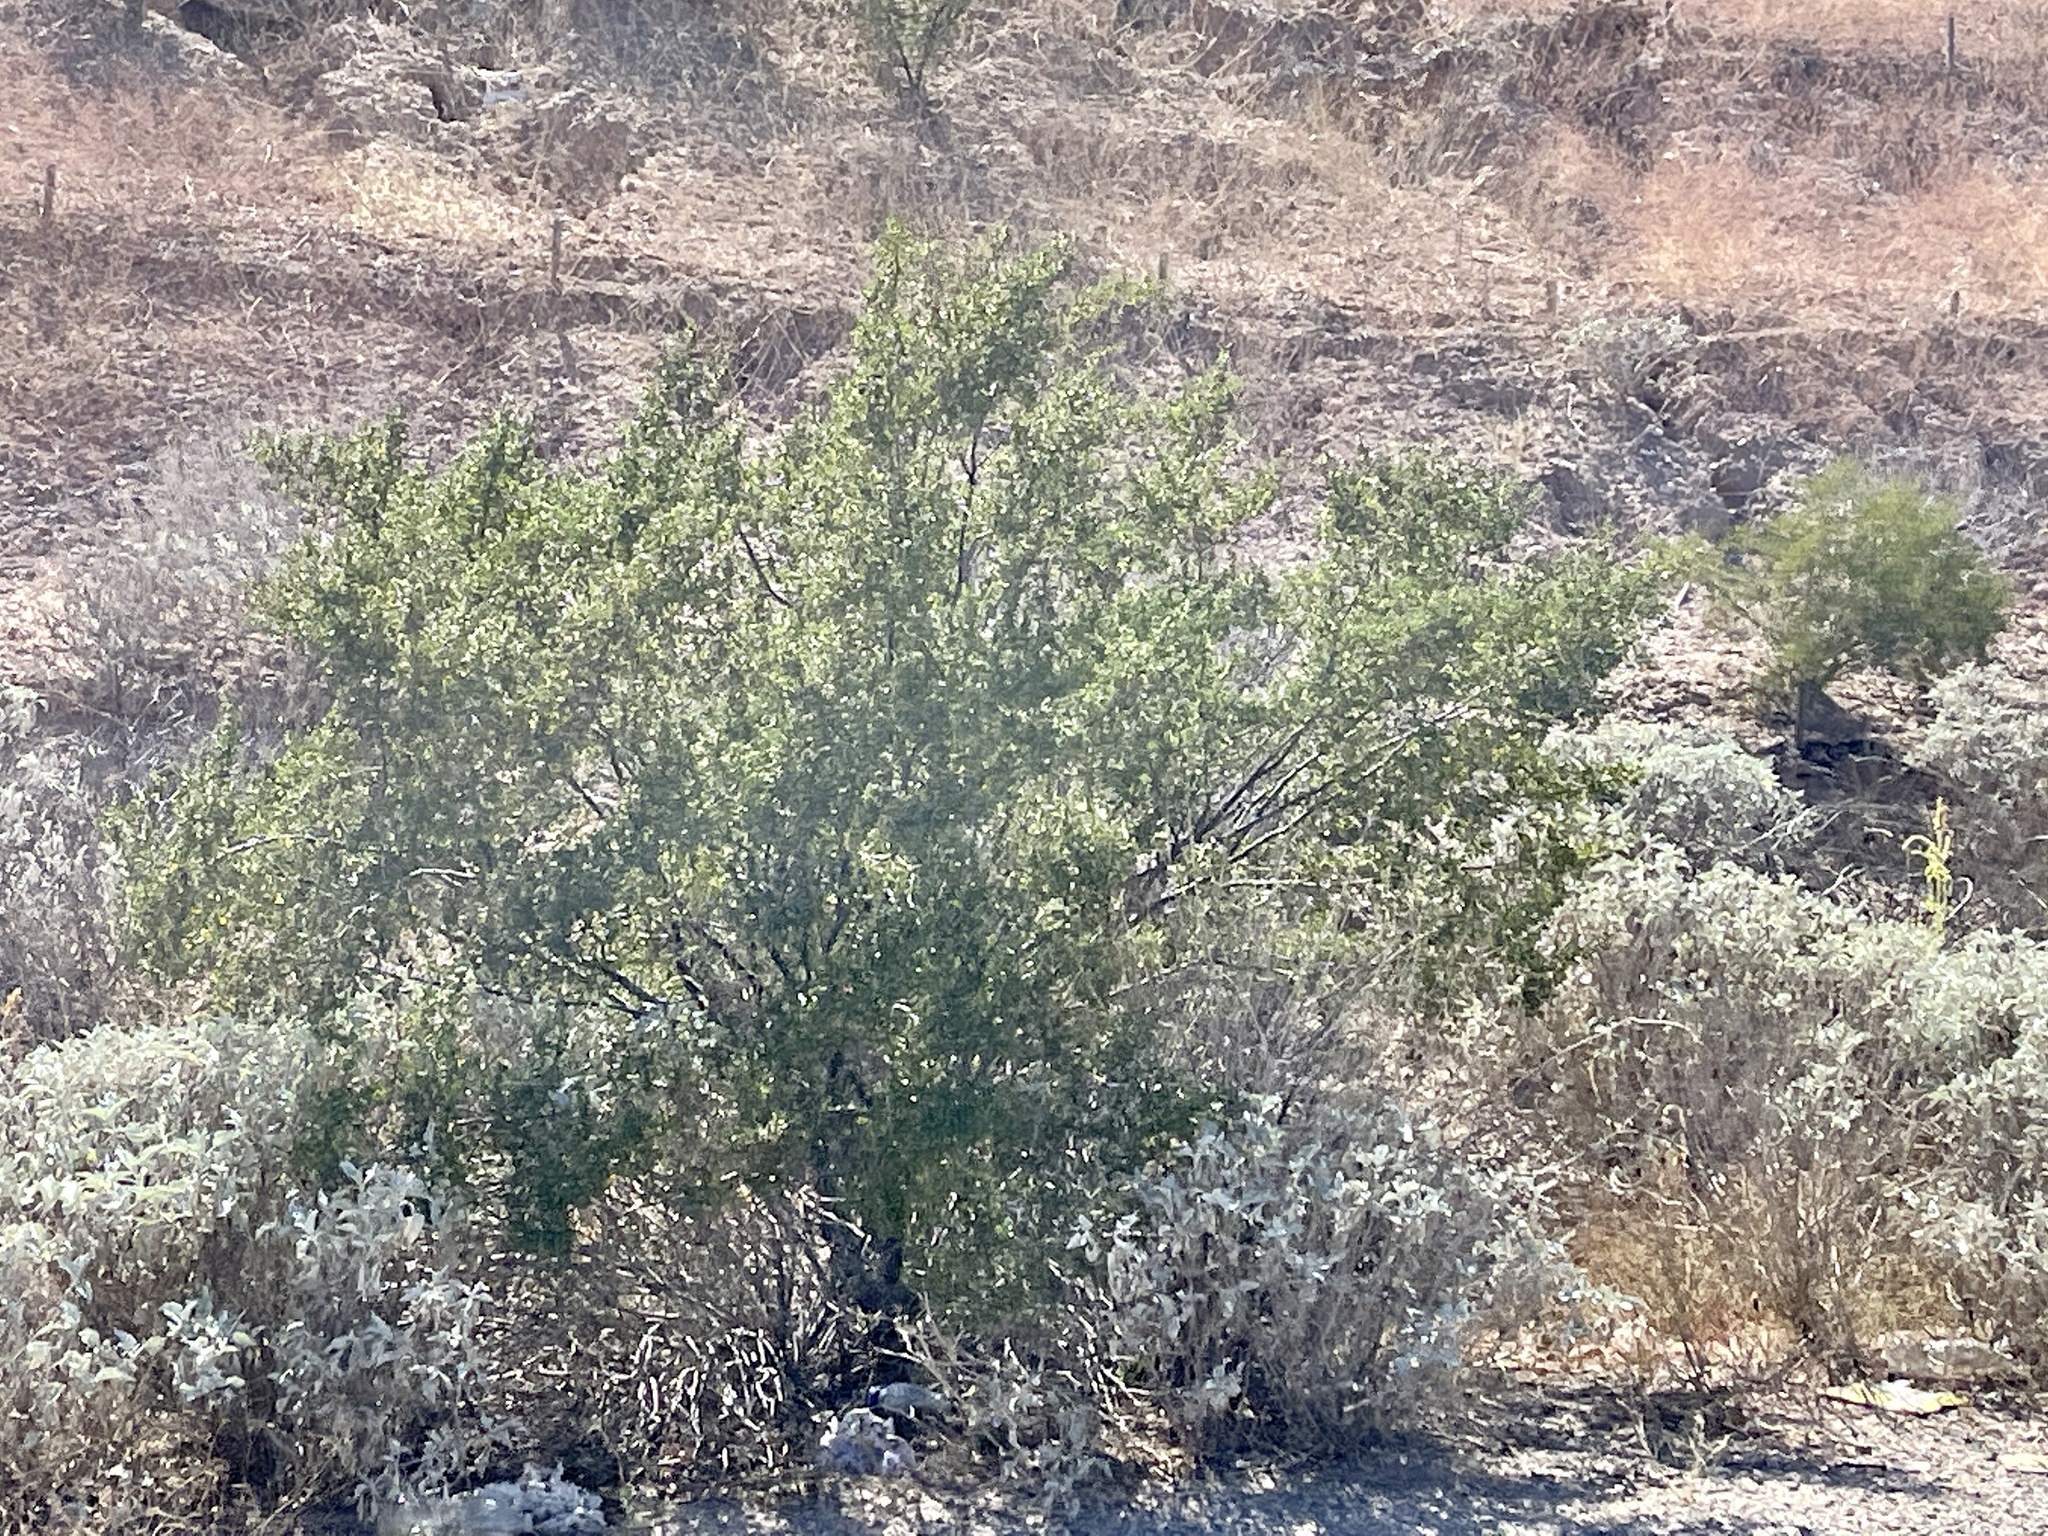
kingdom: Plantae
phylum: Tracheophyta
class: Magnoliopsida
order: Zygophyllales
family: Zygophyllaceae
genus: Larrea
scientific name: Larrea tridentata
